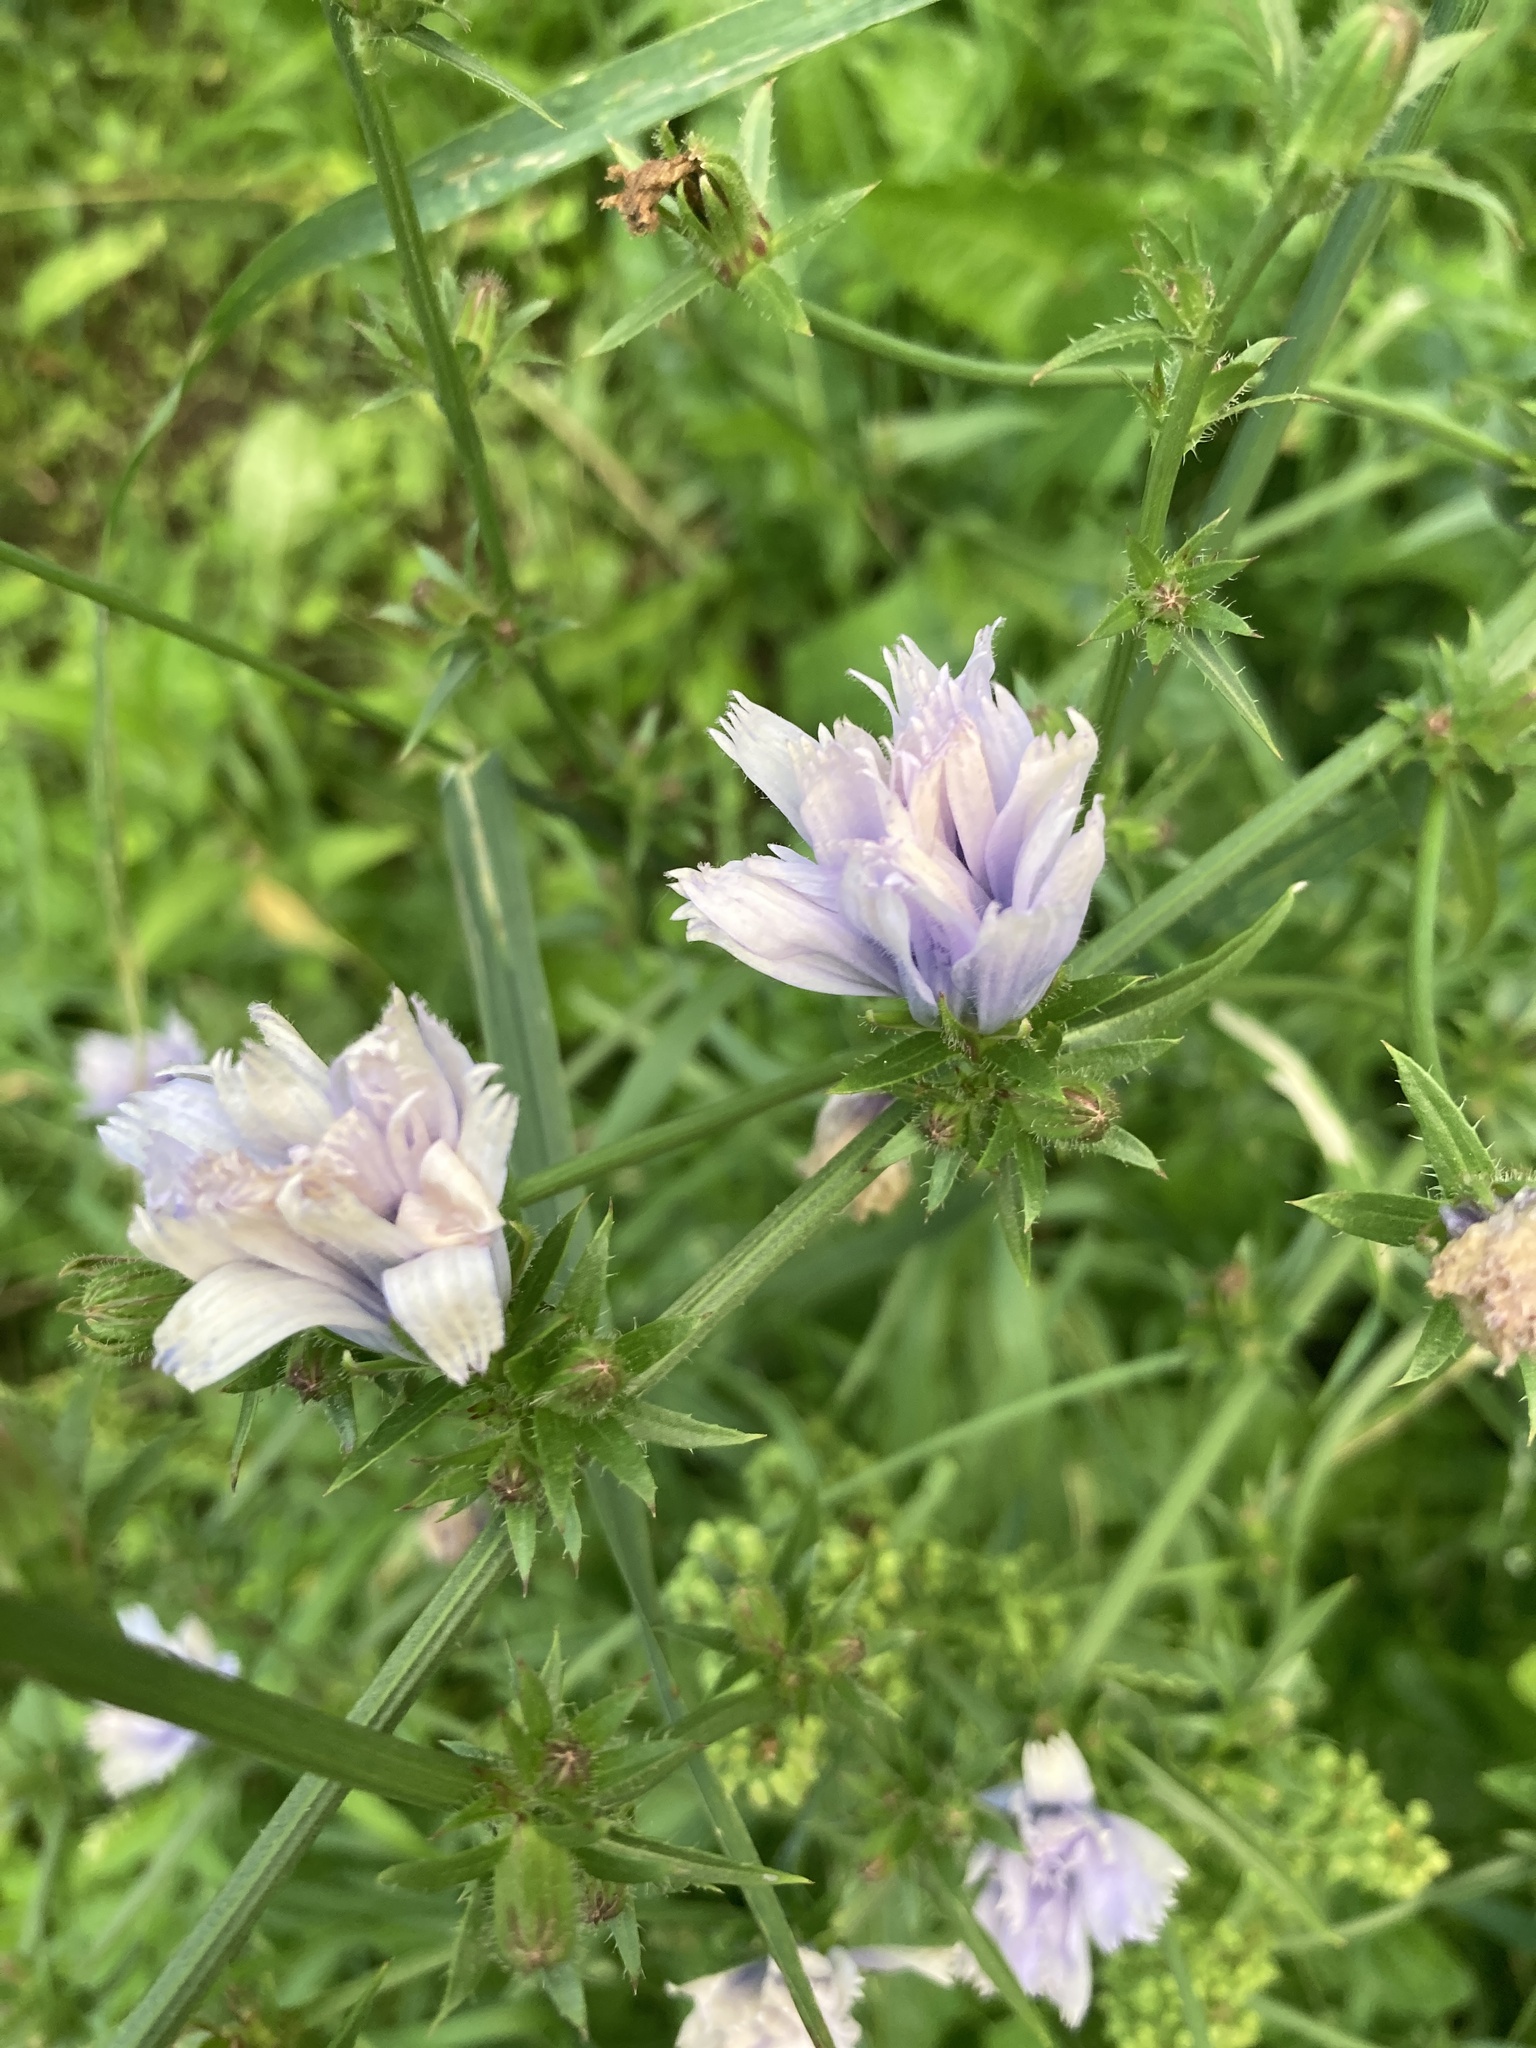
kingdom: Plantae
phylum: Tracheophyta
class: Magnoliopsida
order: Asterales
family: Asteraceae
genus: Cichorium
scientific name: Cichorium intybus
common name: Chicory
